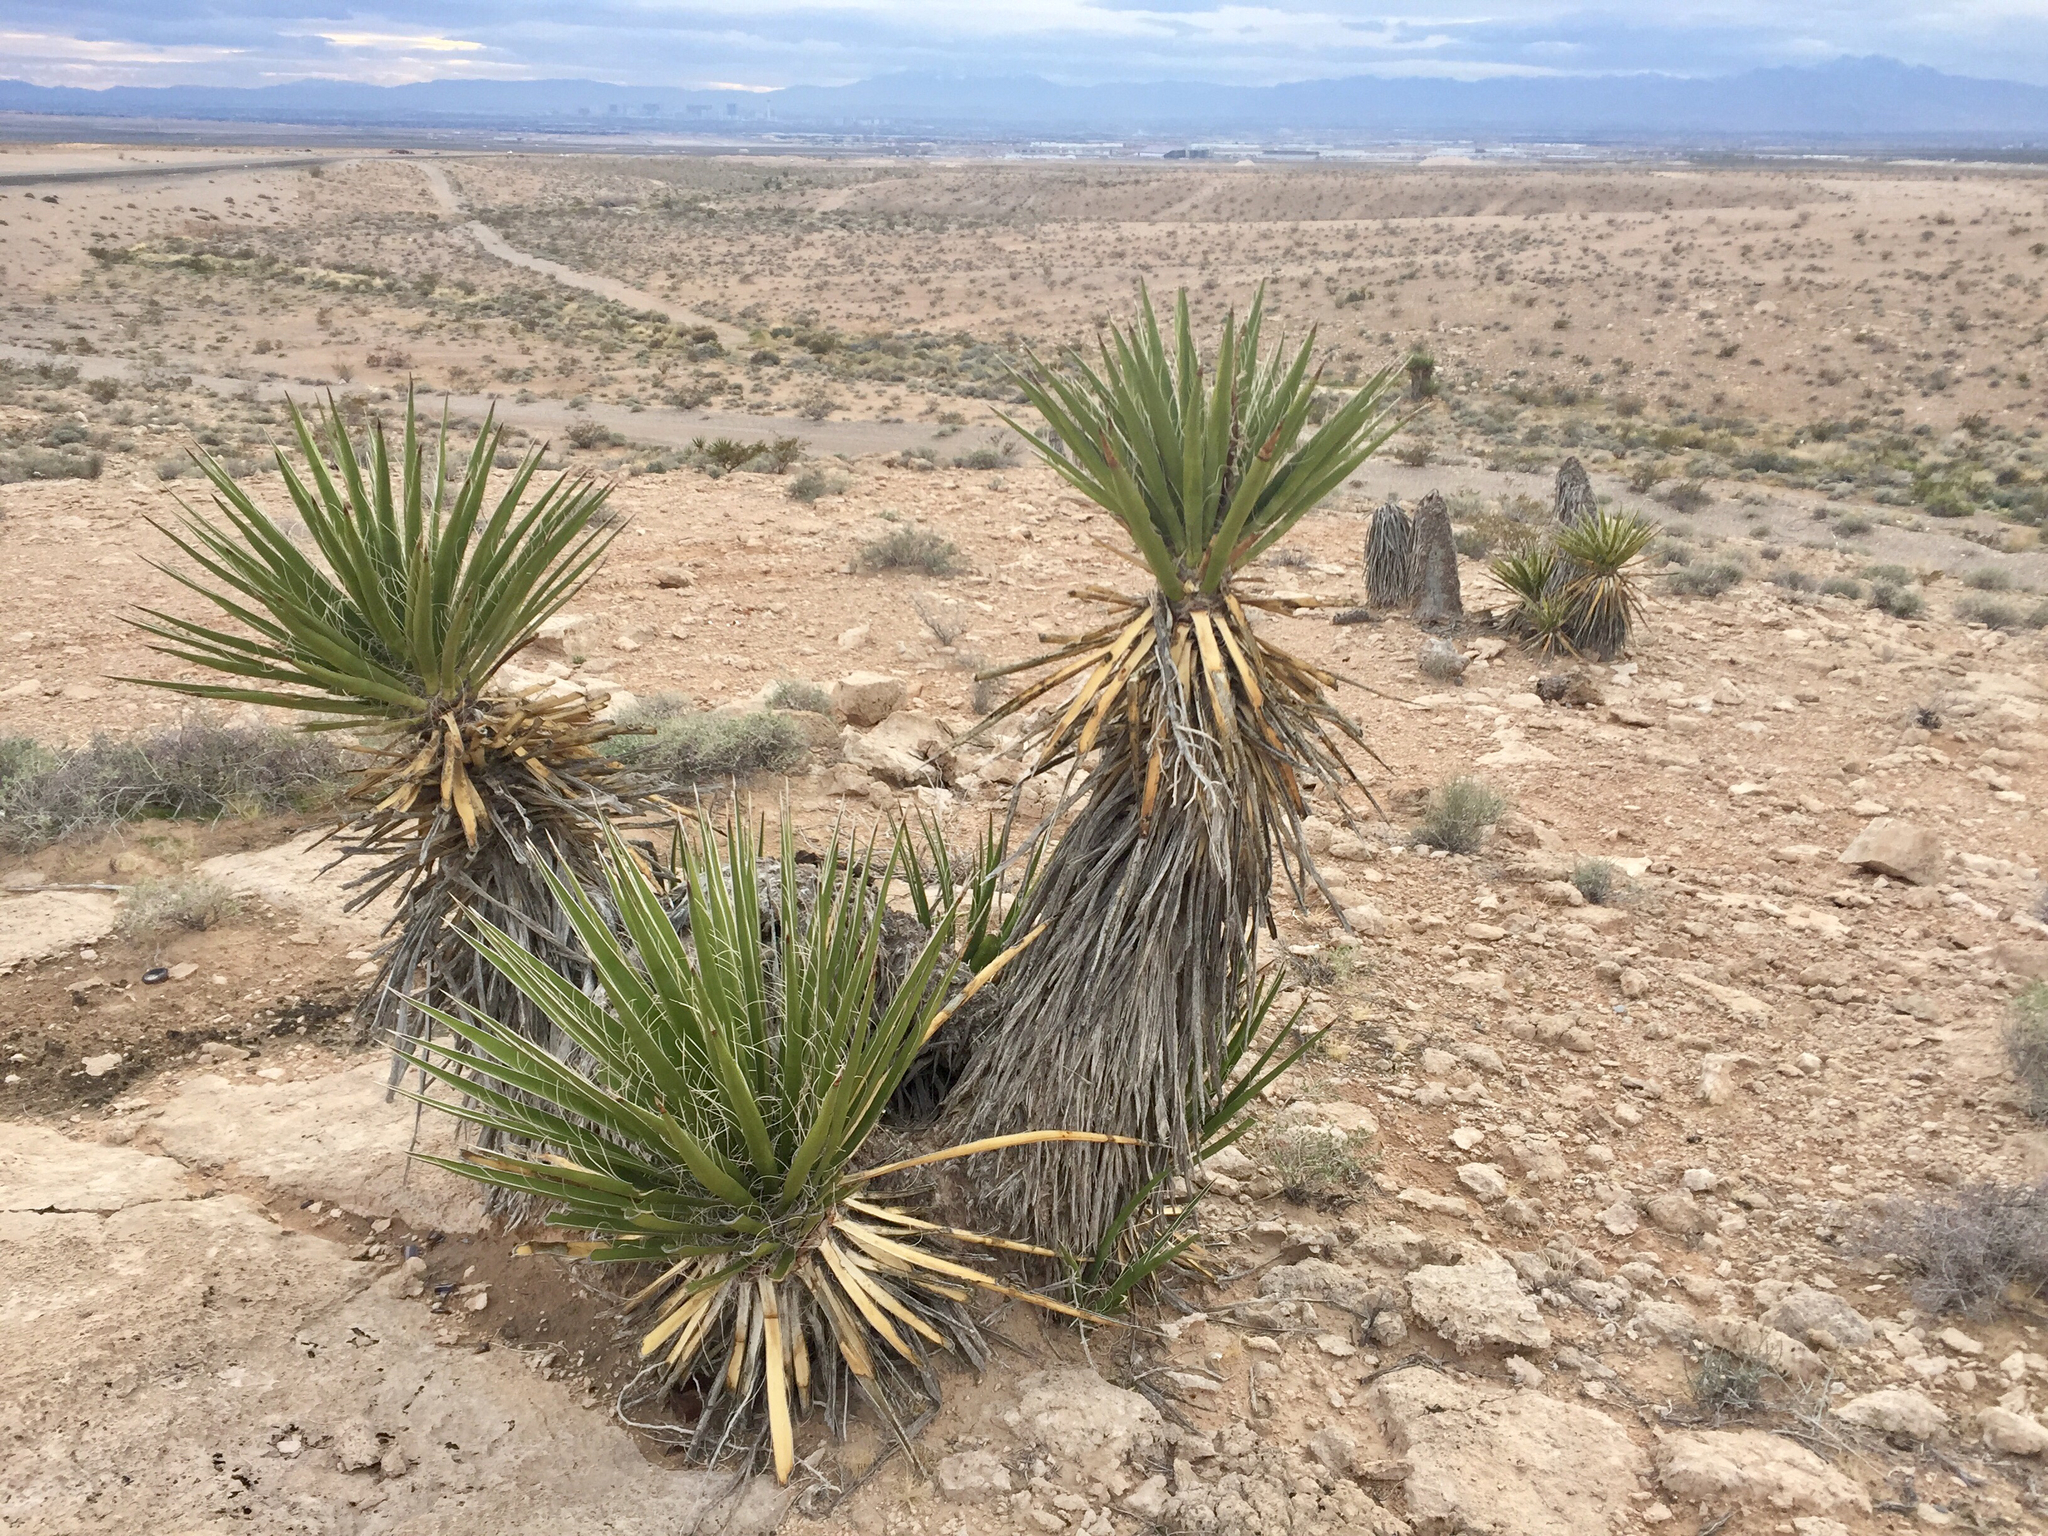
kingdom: Plantae
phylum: Tracheophyta
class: Liliopsida
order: Asparagales
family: Asparagaceae
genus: Yucca
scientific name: Yucca schidigera
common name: Mojave yucca
